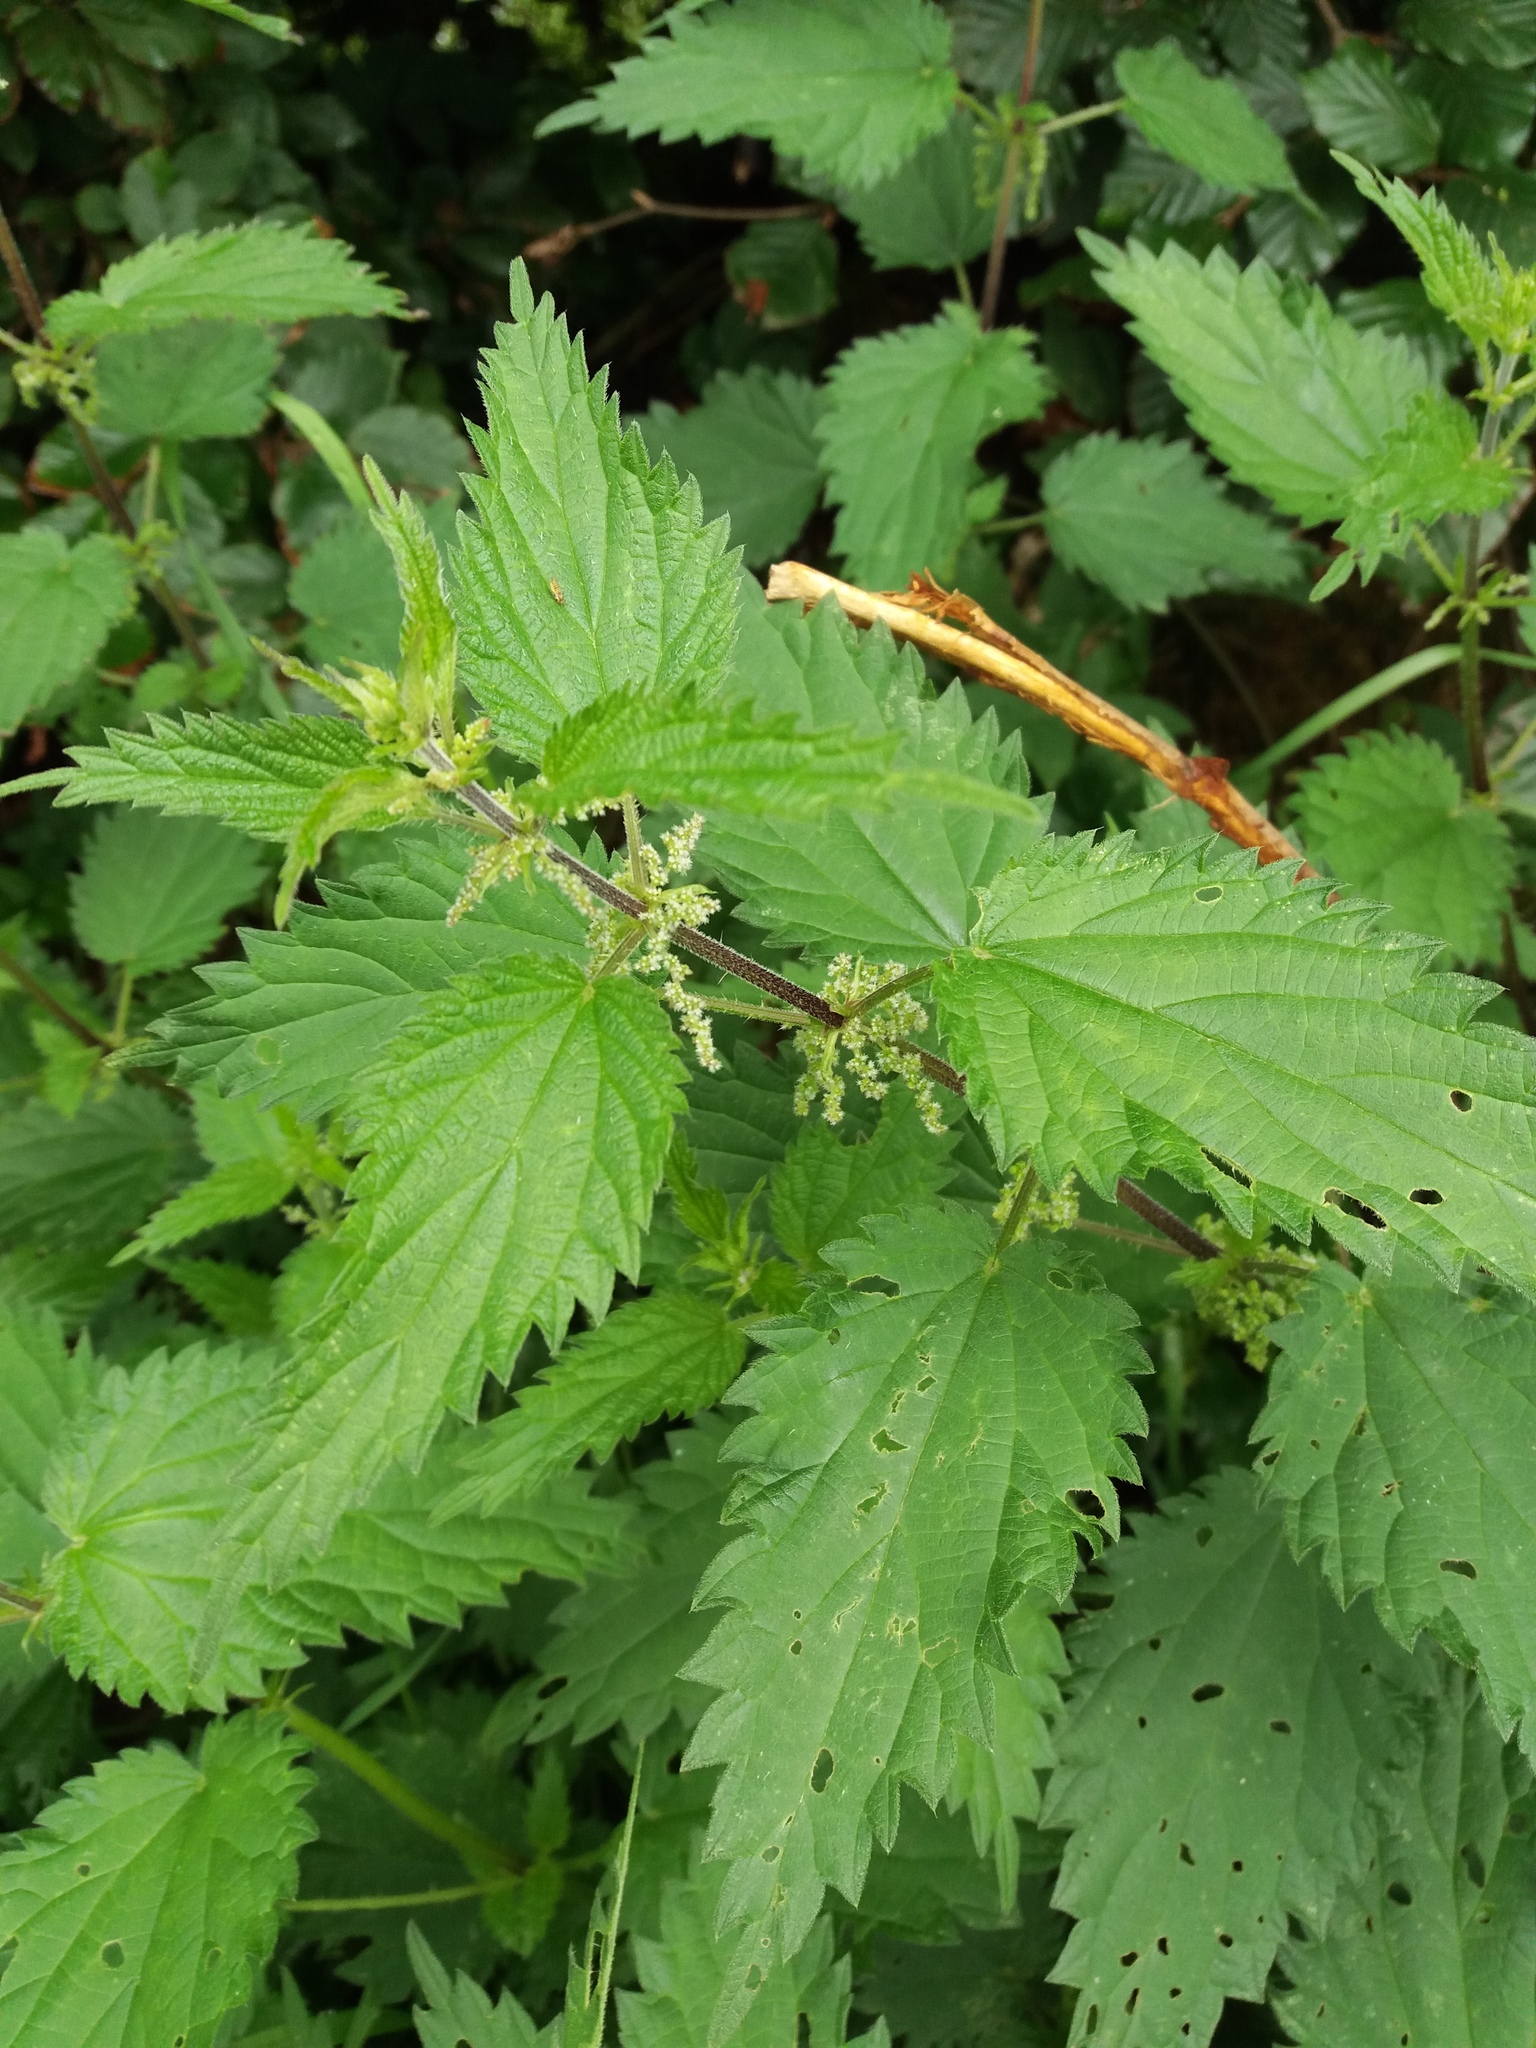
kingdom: Plantae
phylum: Tracheophyta
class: Magnoliopsida
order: Rosales
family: Urticaceae
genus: Urtica
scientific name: Urtica dioica
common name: Common nettle
